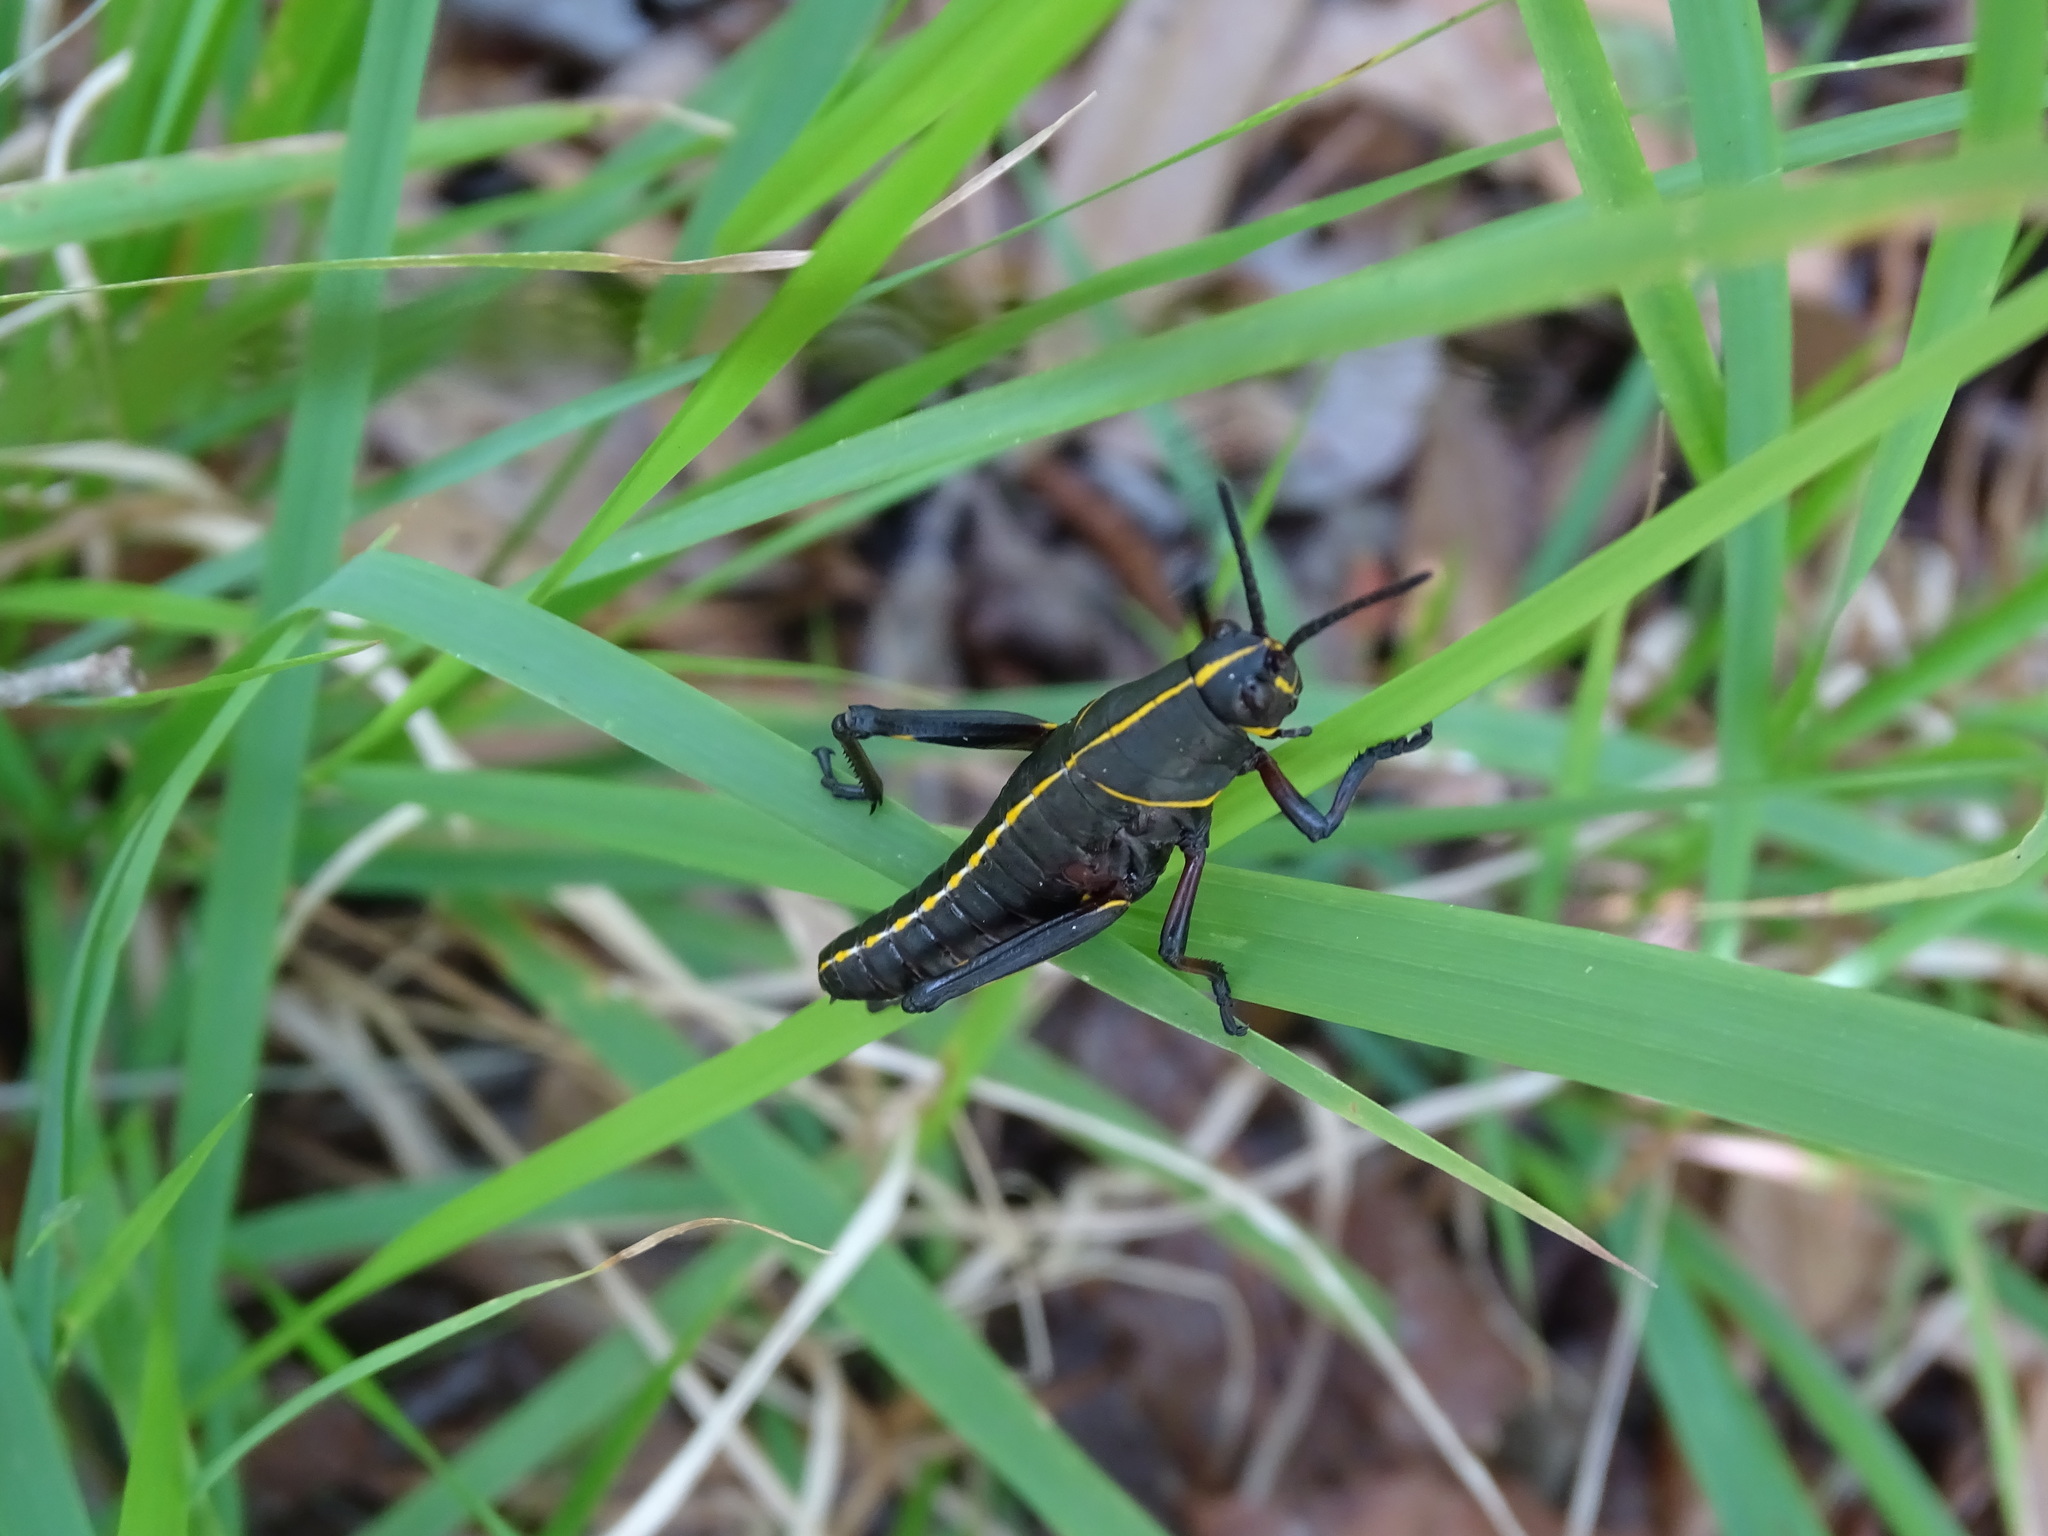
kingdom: Animalia
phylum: Arthropoda
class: Insecta
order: Orthoptera
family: Romaleidae
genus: Romalea
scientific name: Romalea microptera
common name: Eastern lubber grasshopper
